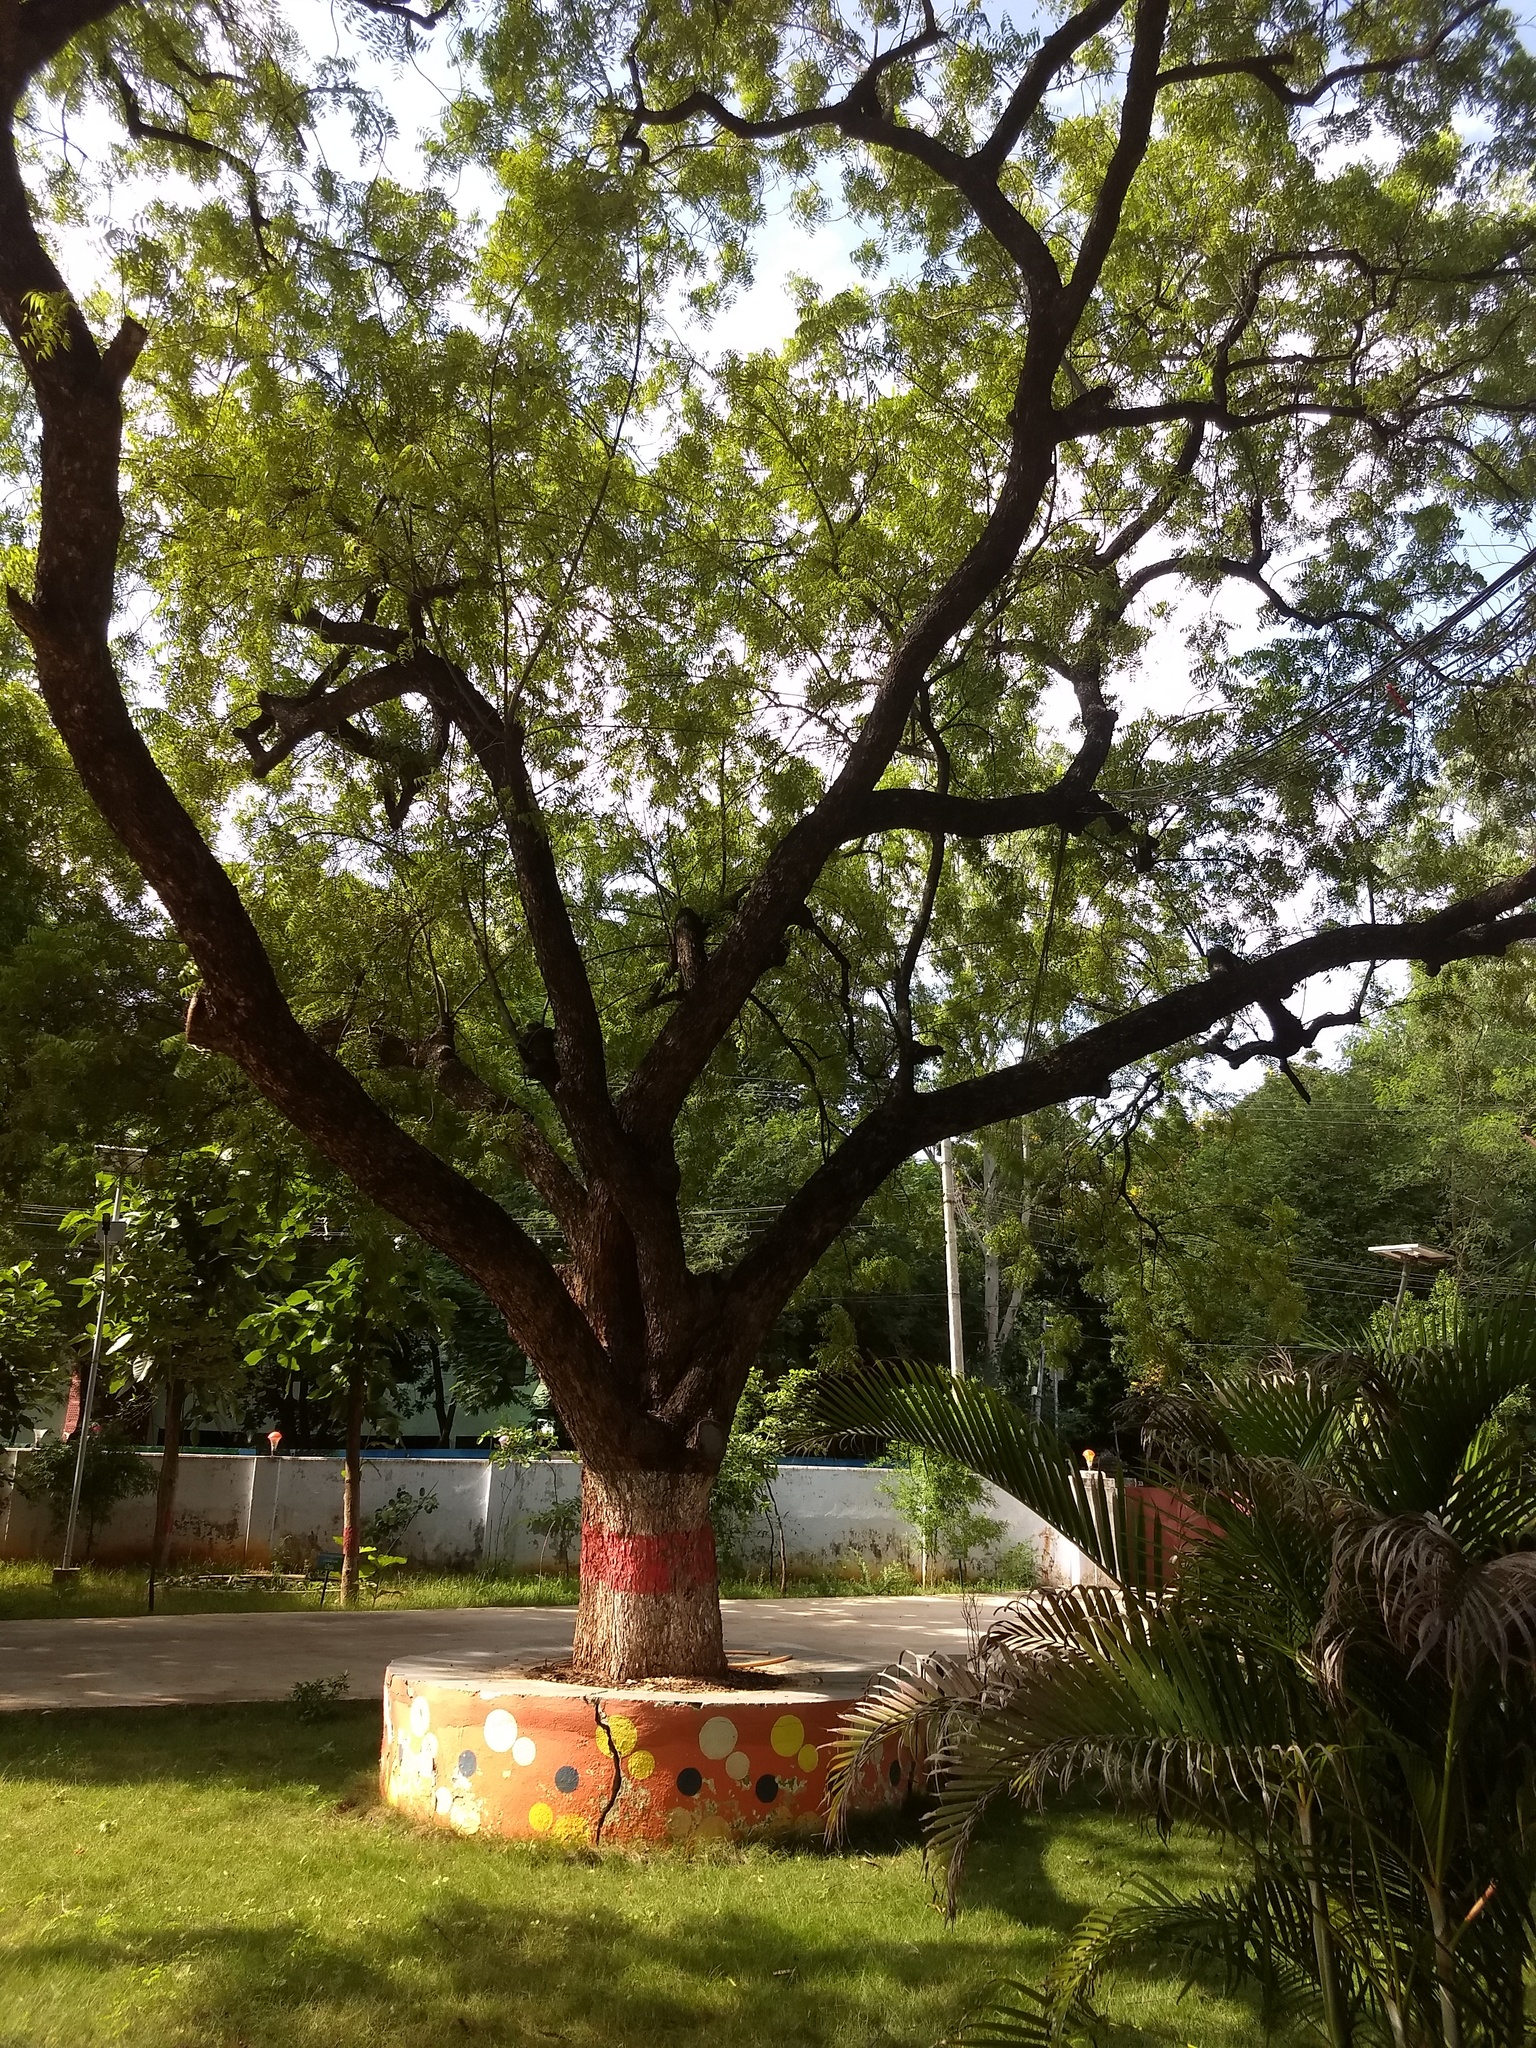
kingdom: Plantae
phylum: Tracheophyta
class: Magnoliopsida
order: Sapindales
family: Meliaceae
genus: Azadirachta
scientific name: Azadirachta indica
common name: Neem
